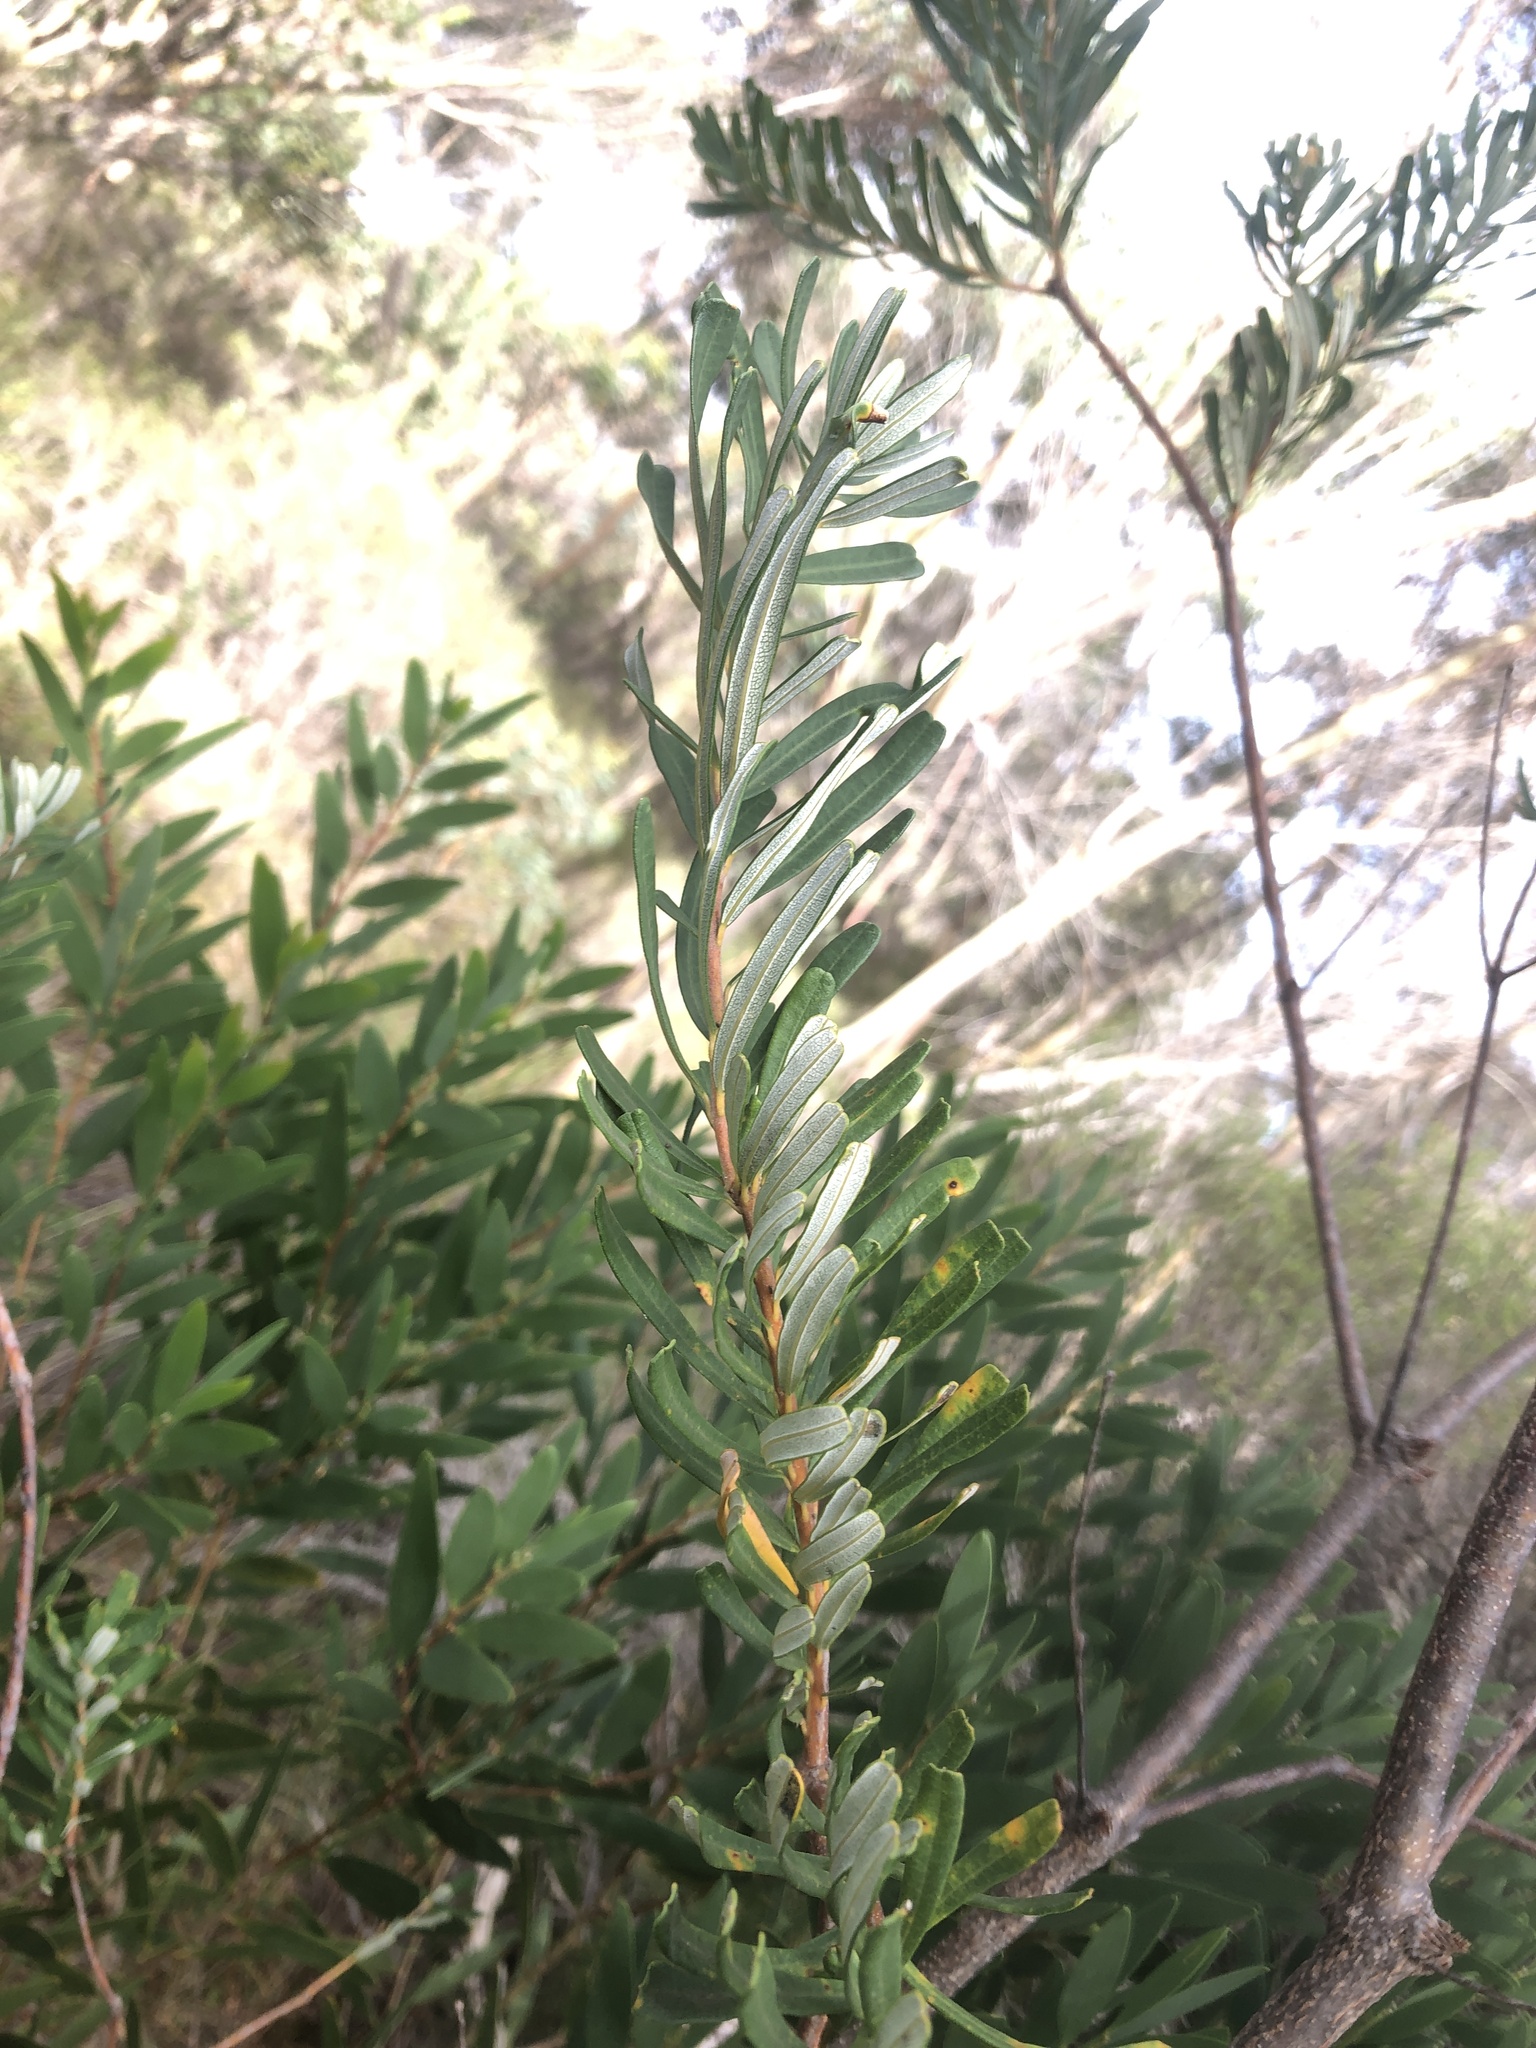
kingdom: Plantae
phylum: Tracheophyta
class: Magnoliopsida
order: Proteales
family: Proteaceae
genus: Banksia
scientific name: Banksia marginata
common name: Silver banksia
